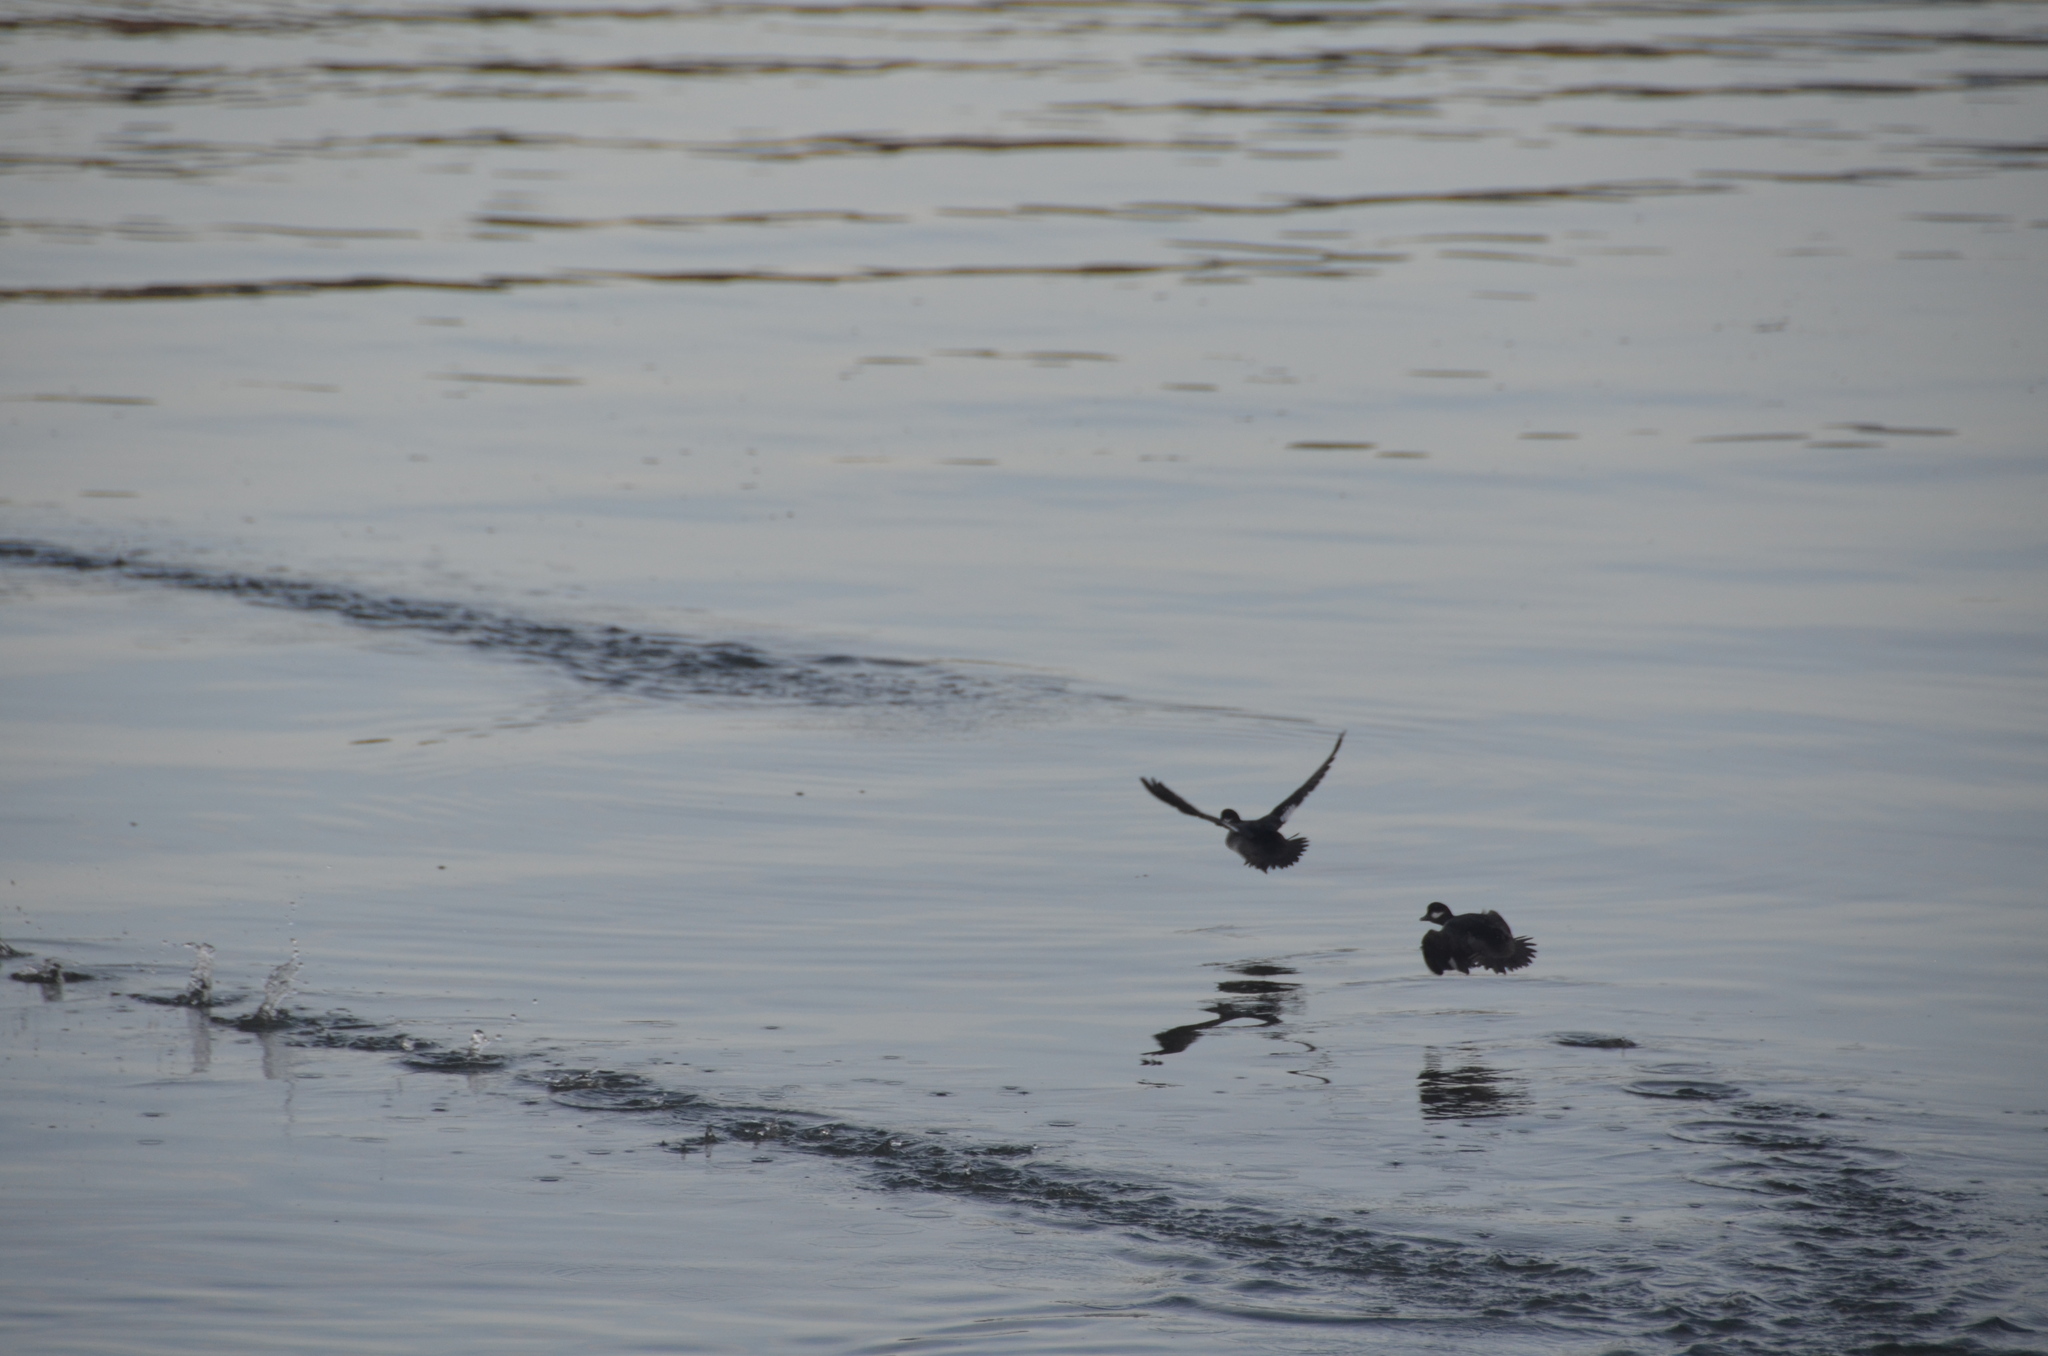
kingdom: Animalia
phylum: Chordata
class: Aves
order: Anseriformes
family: Anatidae
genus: Bucephala
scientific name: Bucephala albeola
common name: Bufflehead
